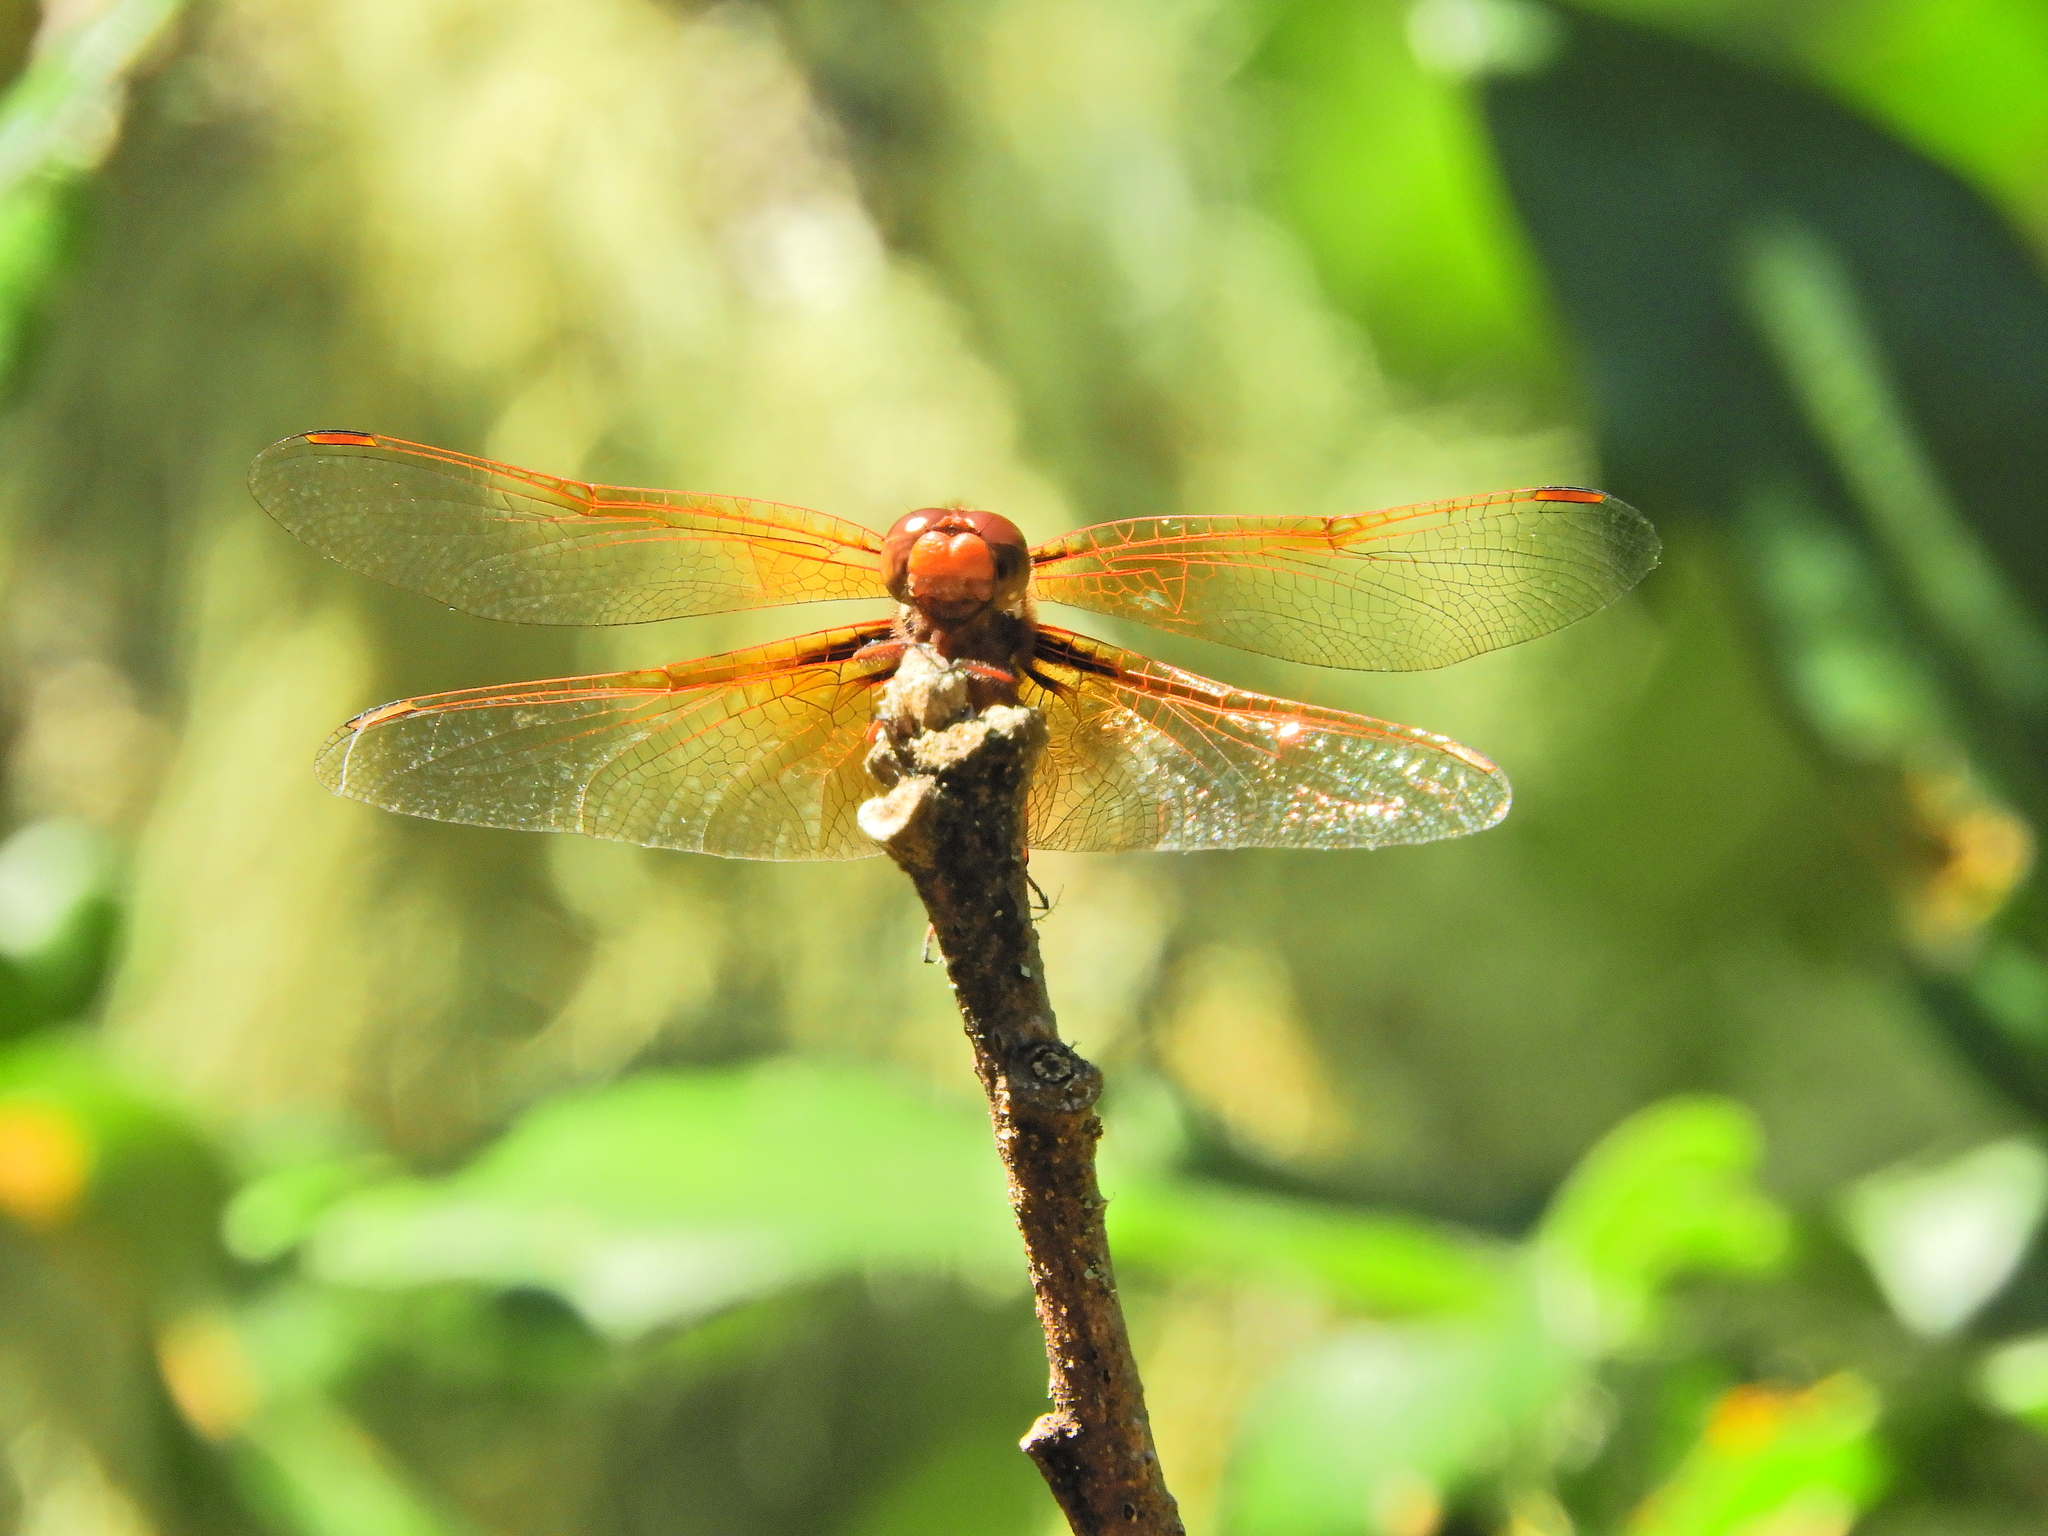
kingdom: Animalia
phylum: Arthropoda
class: Insecta
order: Odonata
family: Libellulidae
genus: Sympetrum
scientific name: Sympetrum illotum
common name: Cardinal meadowhawk
